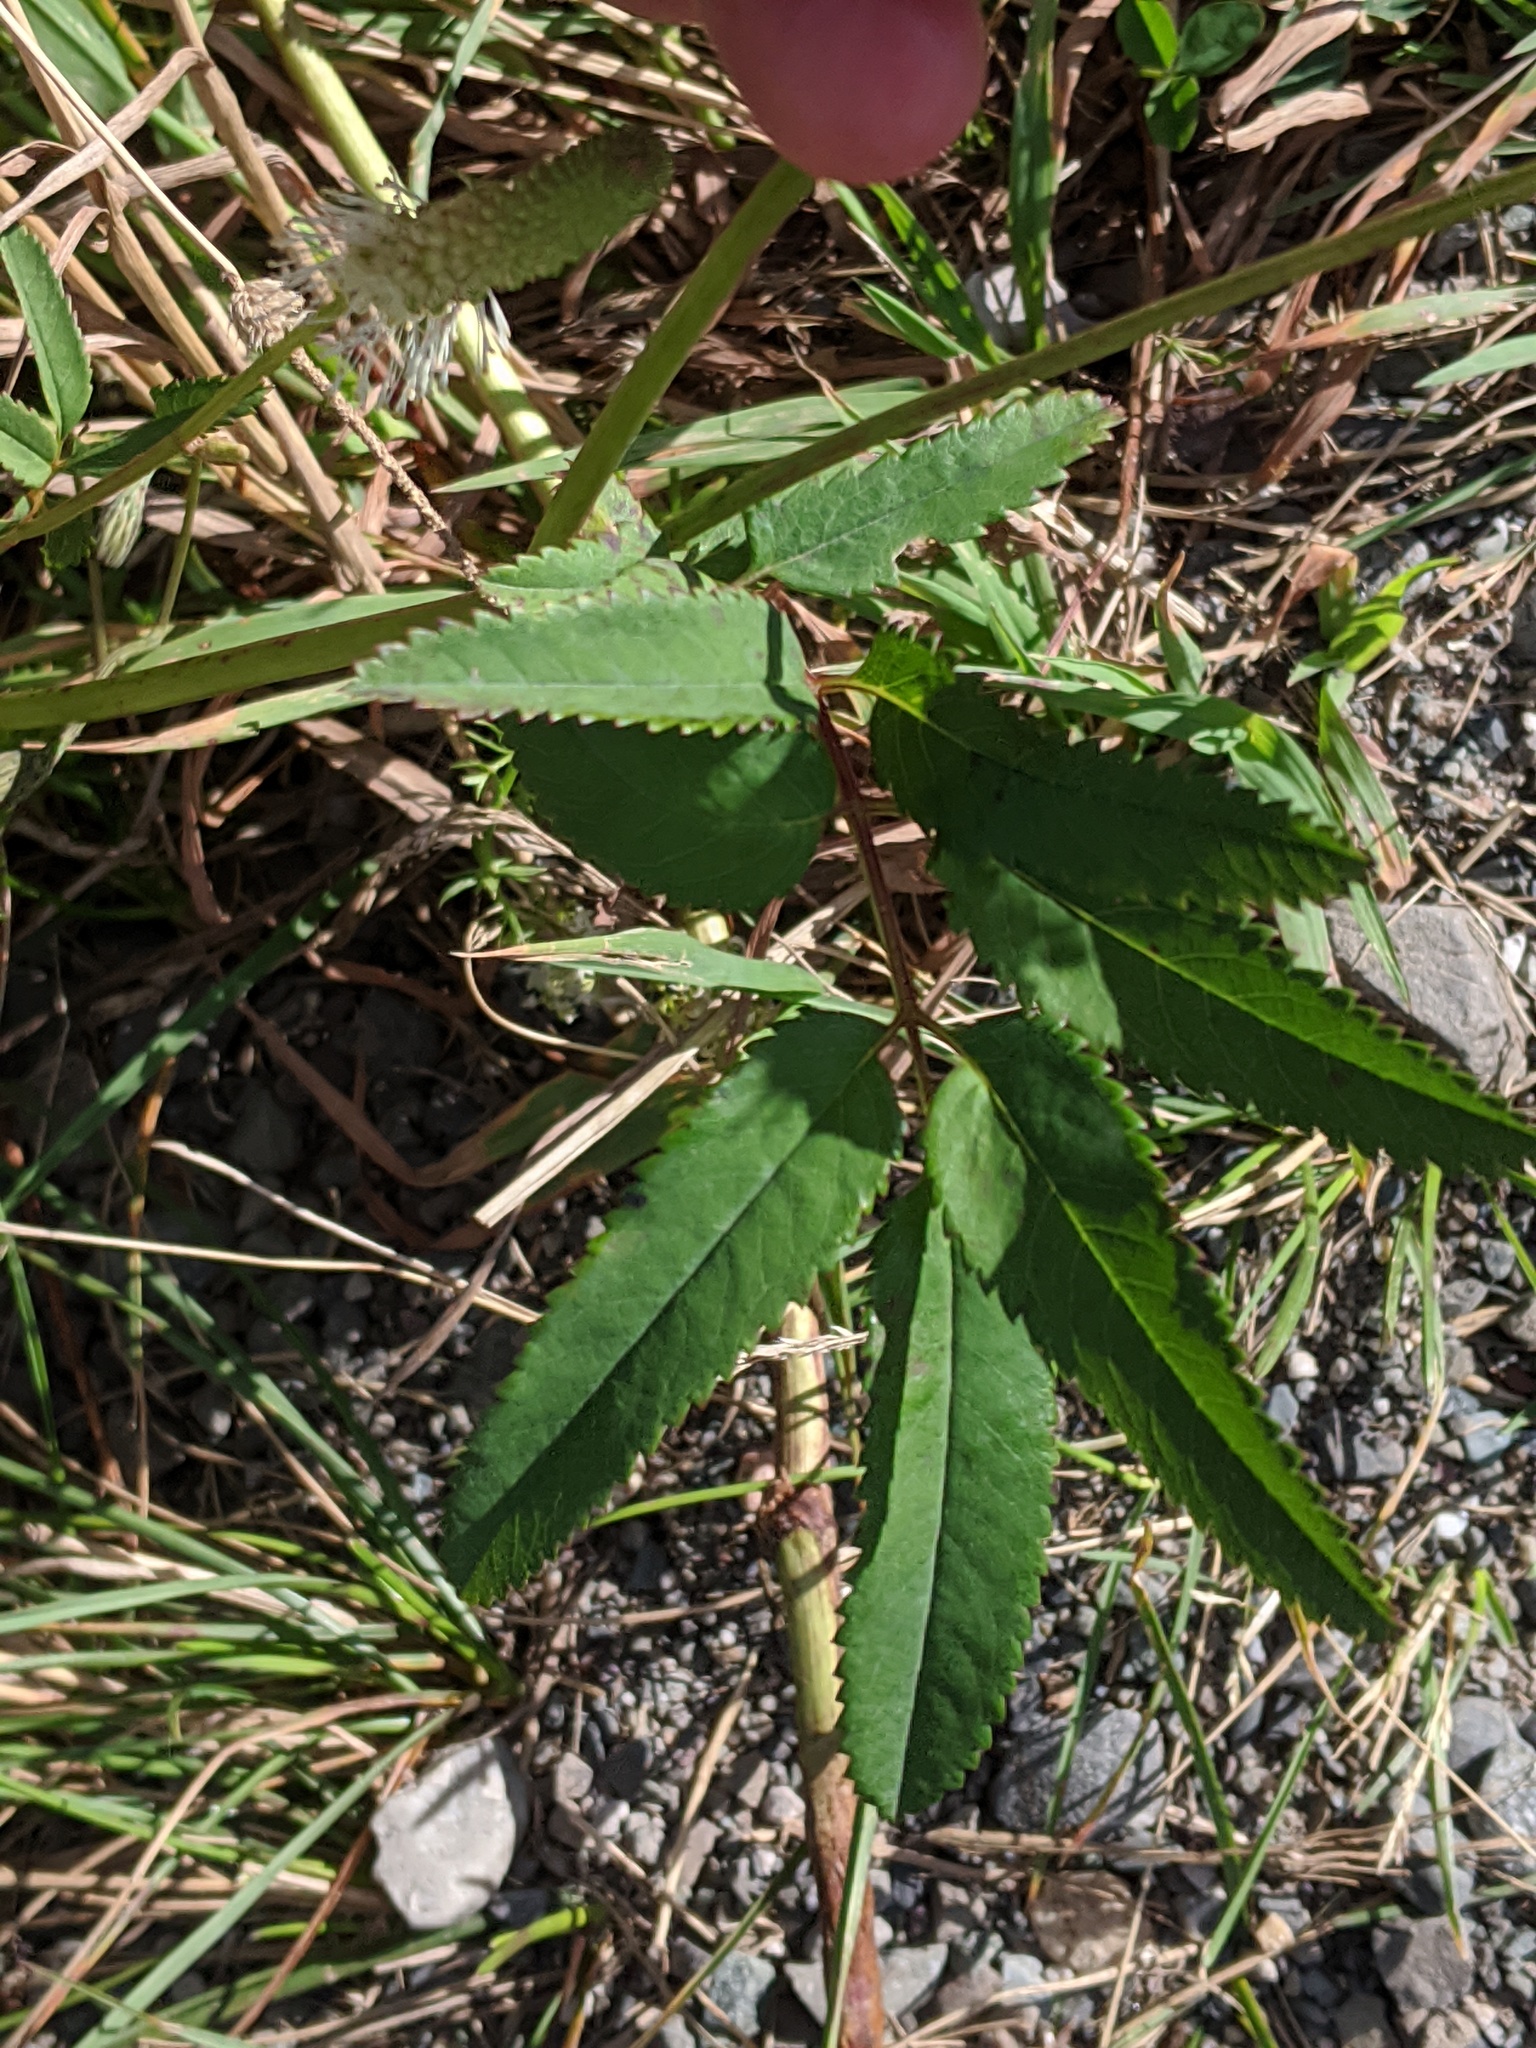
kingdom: Plantae
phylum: Tracheophyta
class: Magnoliopsida
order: Rosales
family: Rosaceae
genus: Sanguisorba
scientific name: Sanguisorba canadensis
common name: White burnet
